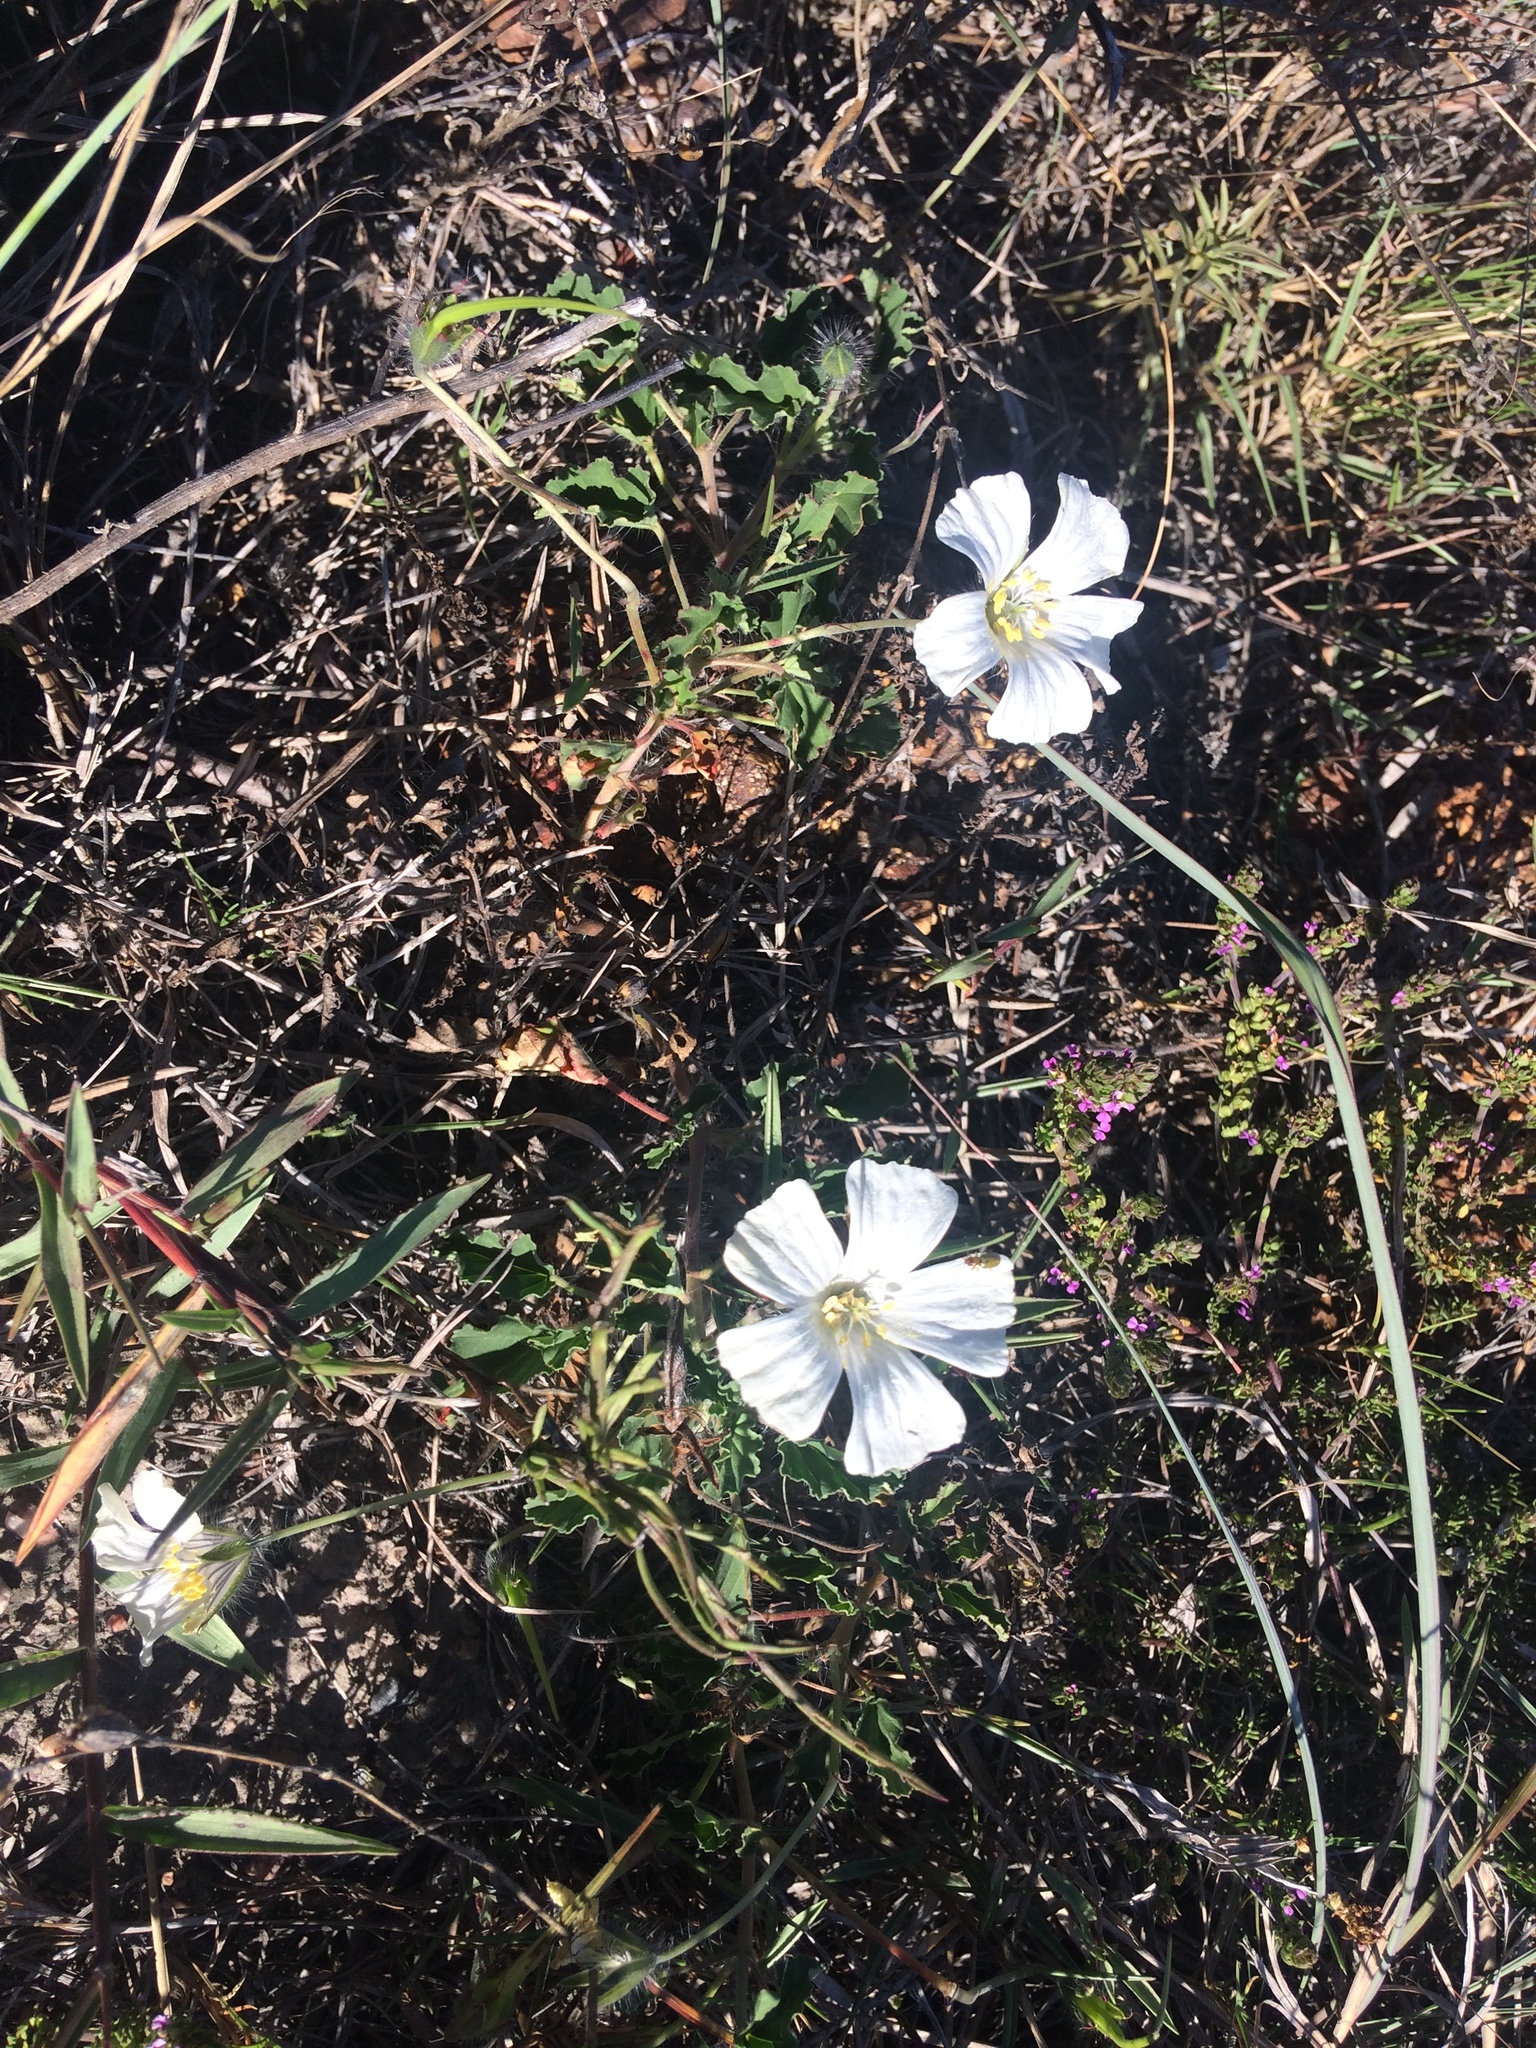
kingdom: Plantae
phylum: Tracheophyta
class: Magnoliopsida
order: Geraniales
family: Geraniaceae
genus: Monsonia
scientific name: Monsonia emarginata
